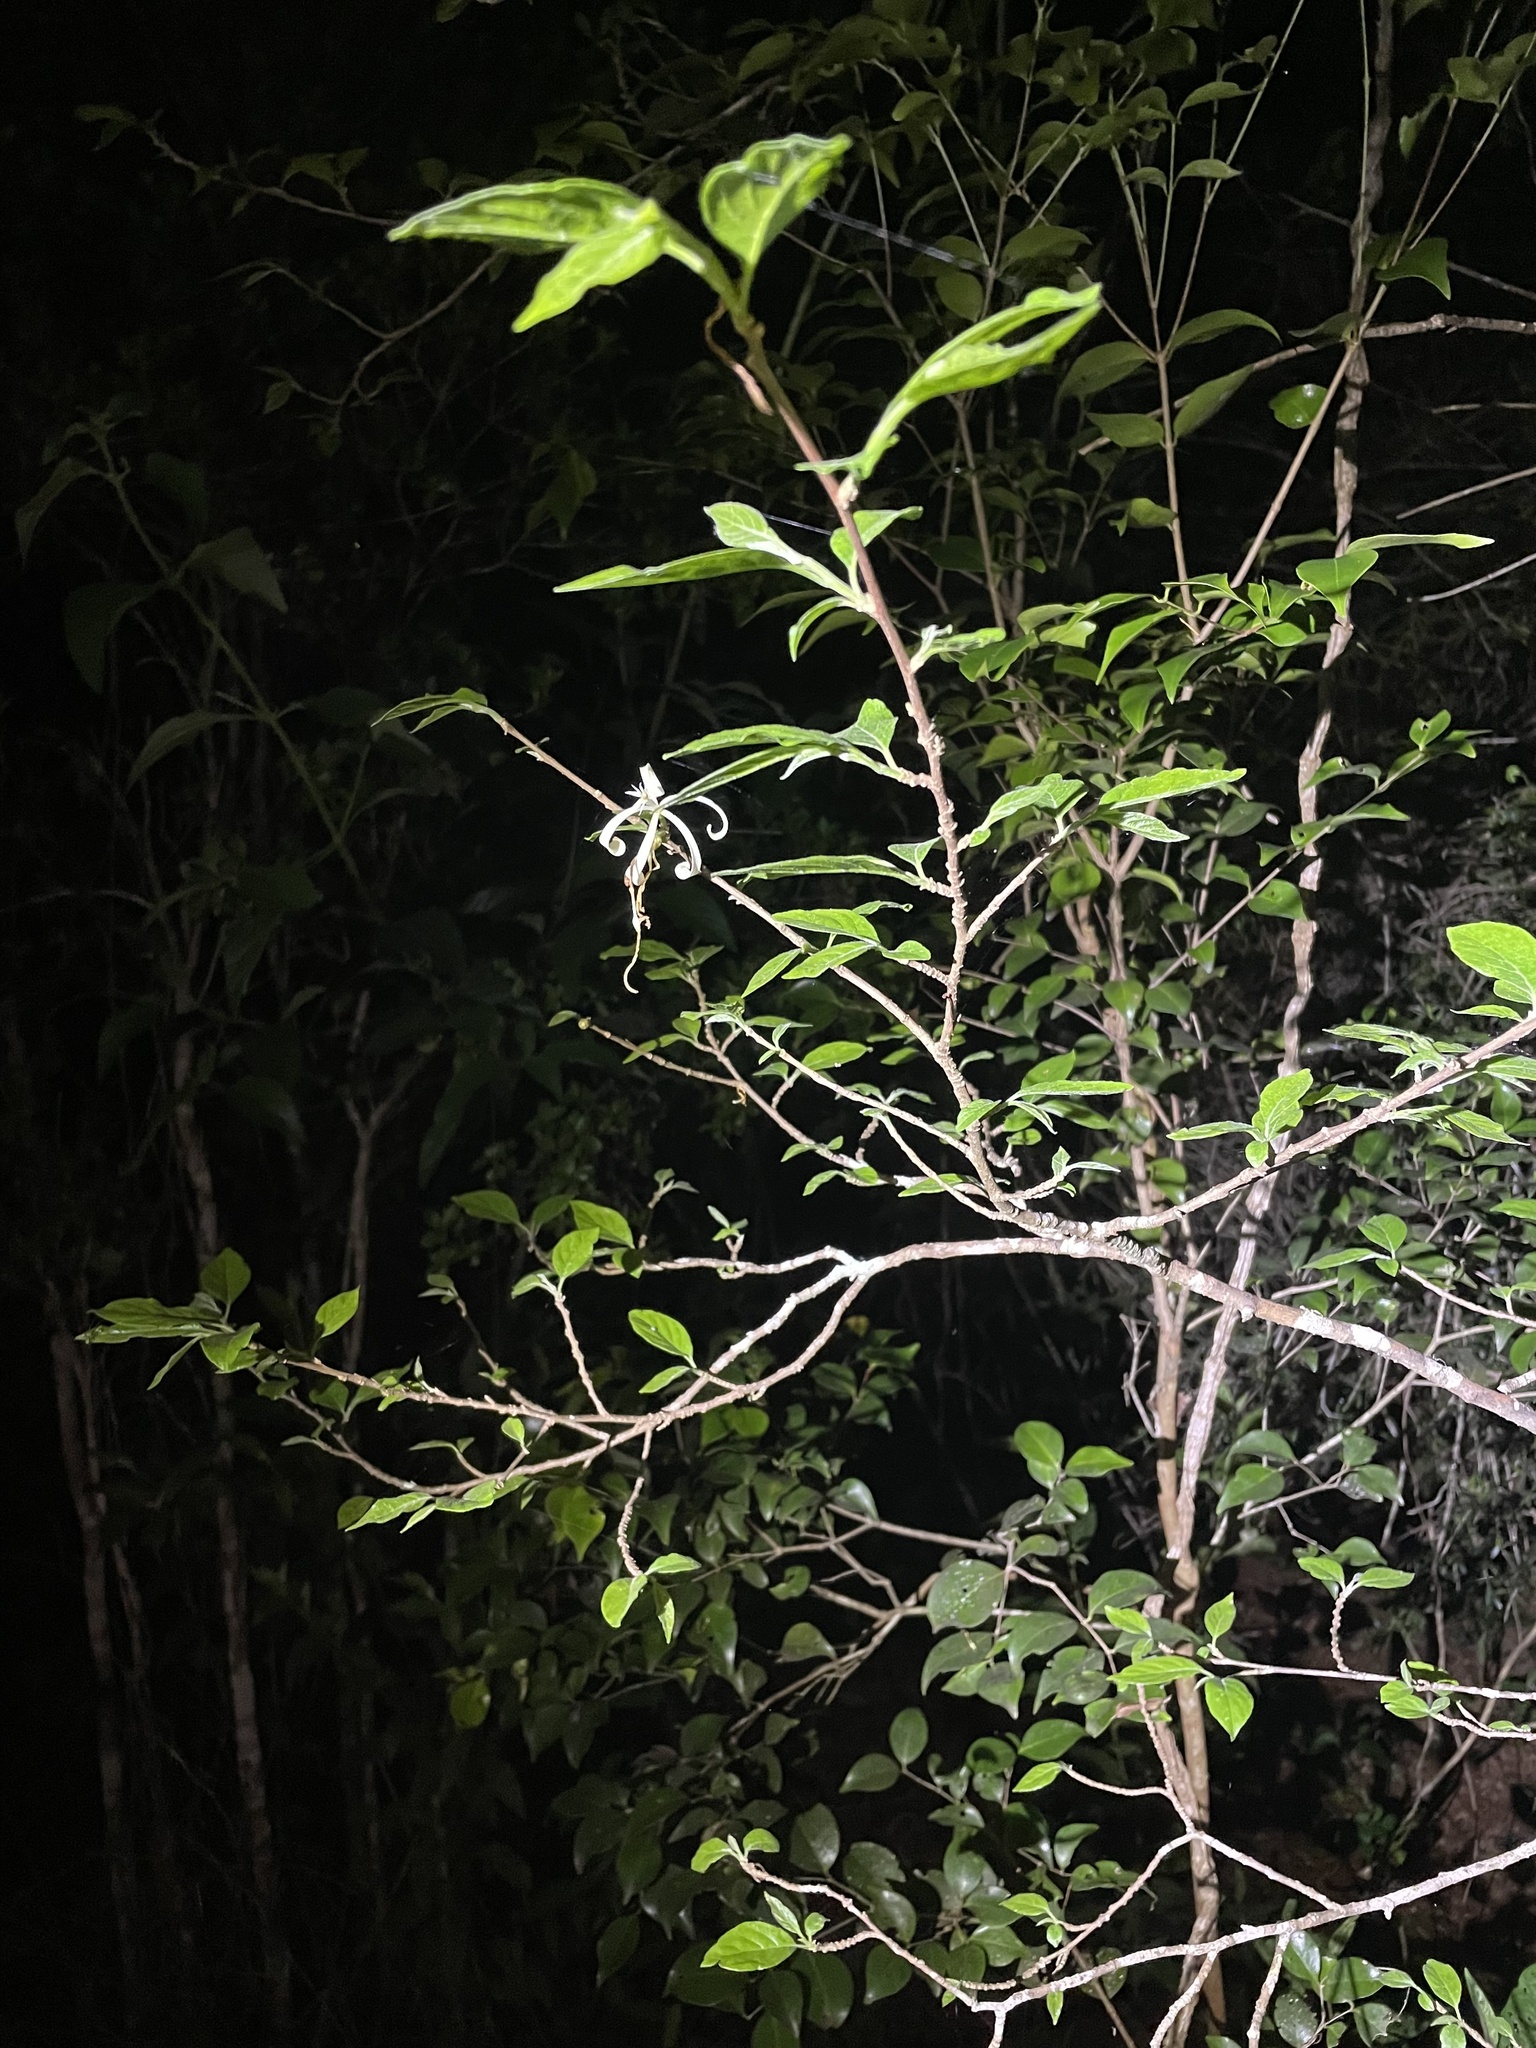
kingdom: Plantae
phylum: Tracheophyta
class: Magnoliopsida
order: Sapindales
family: Meliaceae
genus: Turraea
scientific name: Turraea pubescens
